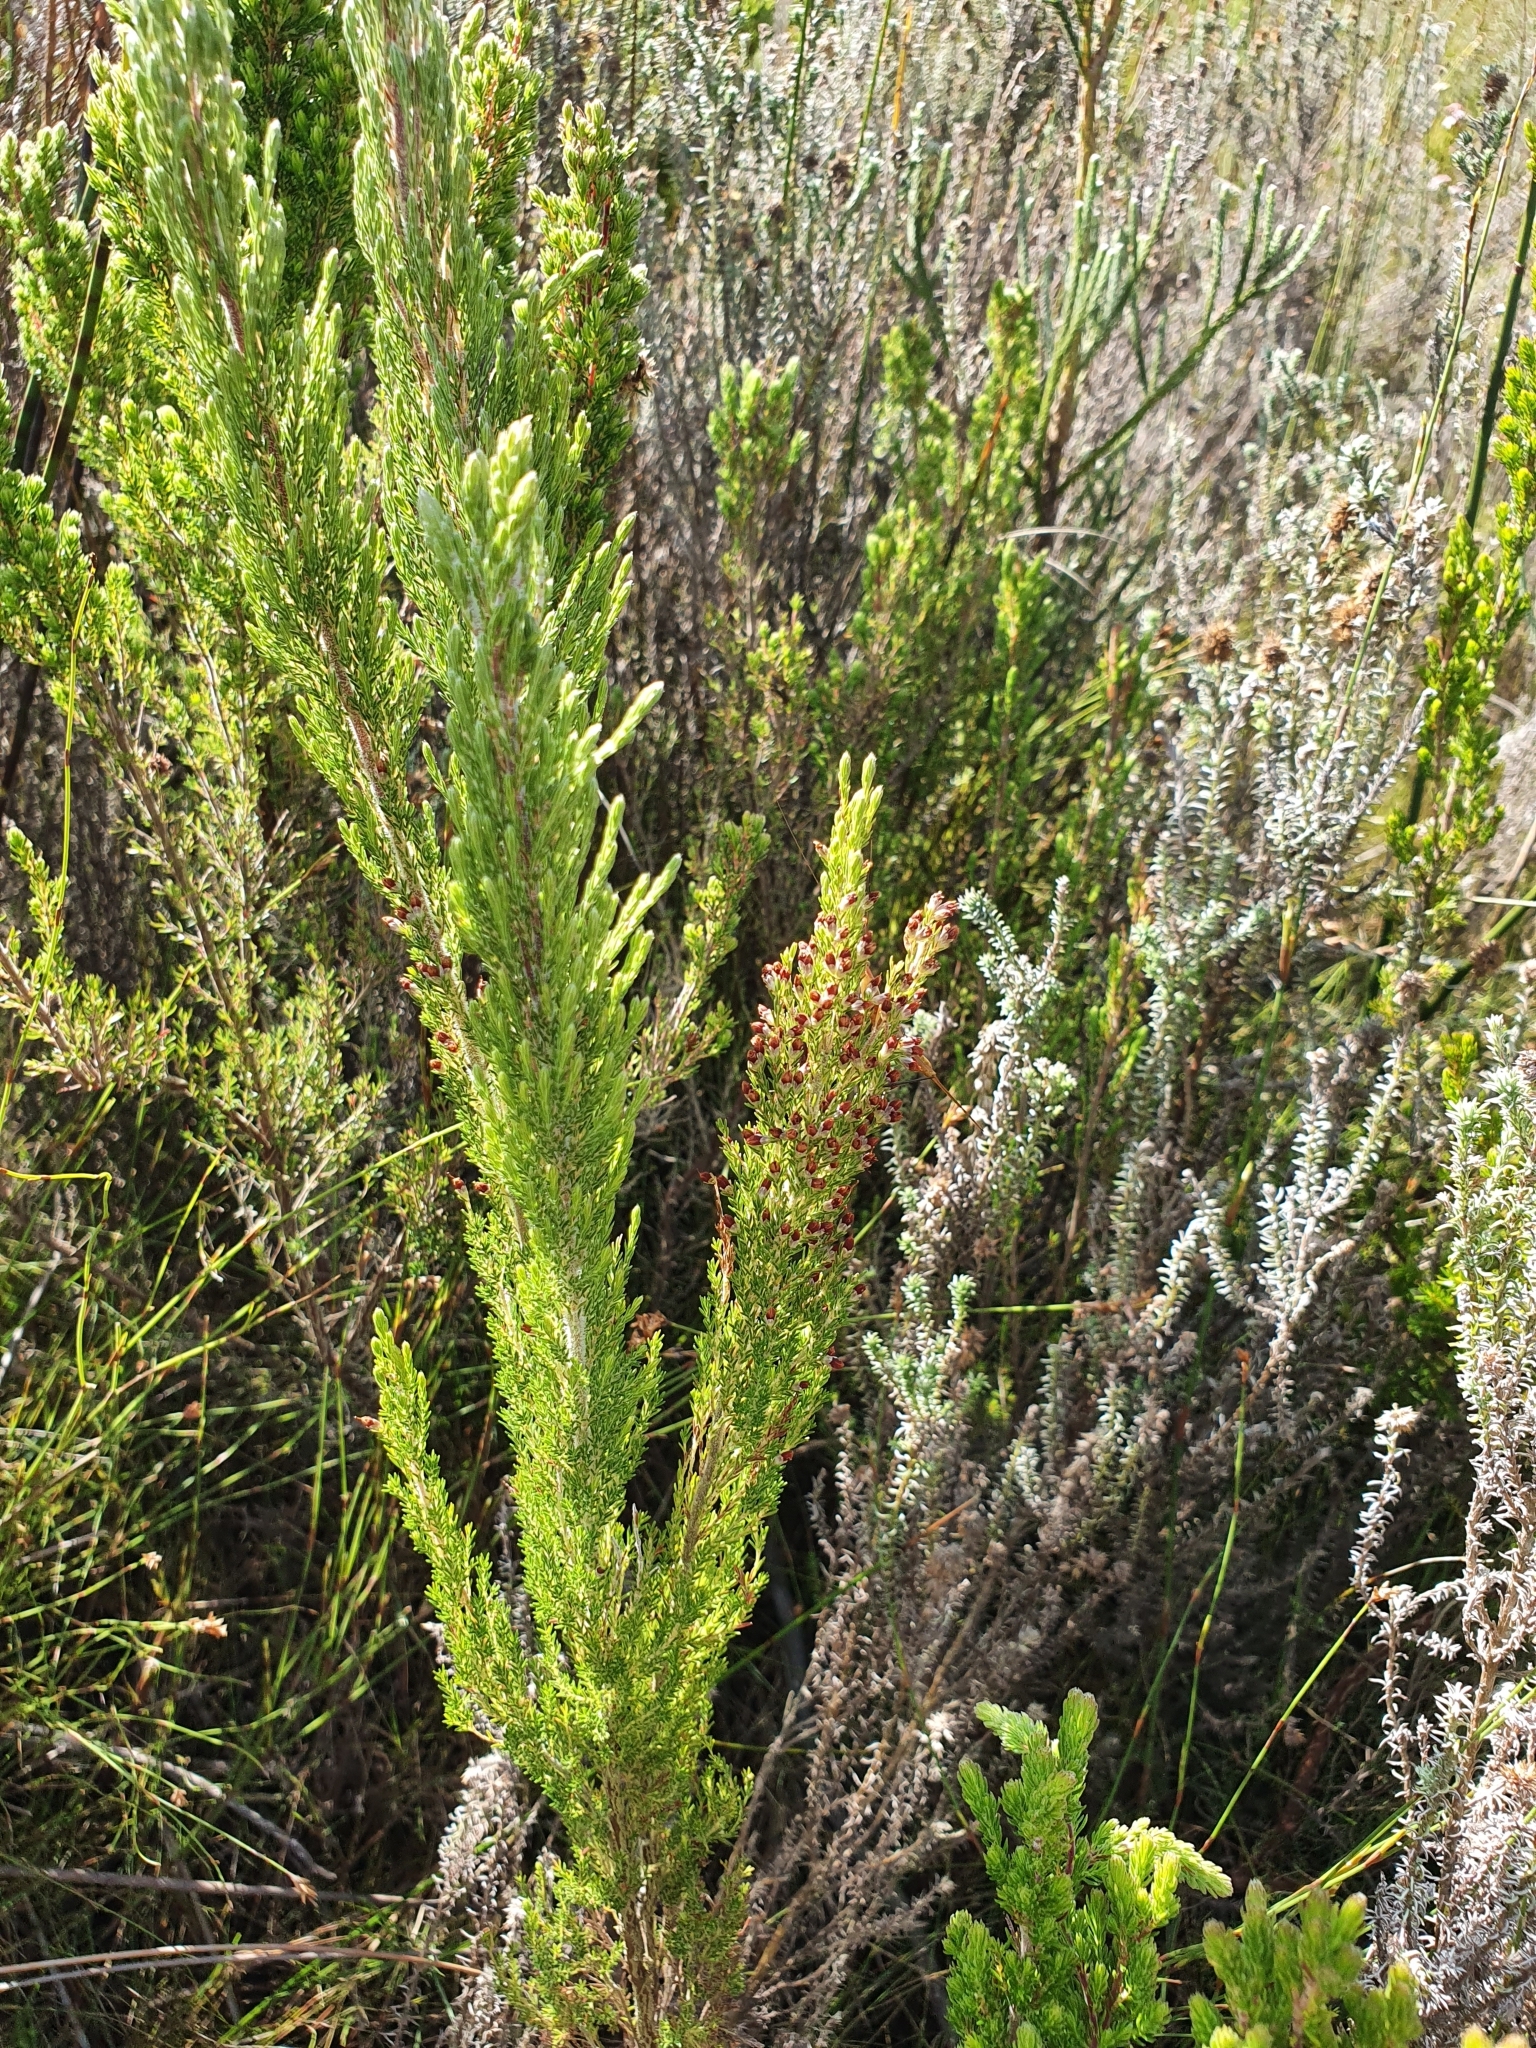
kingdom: Plantae
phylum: Tracheophyta
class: Magnoliopsida
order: Ericales
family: Ericaceae
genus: Erica
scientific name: Erica jacksoniana
